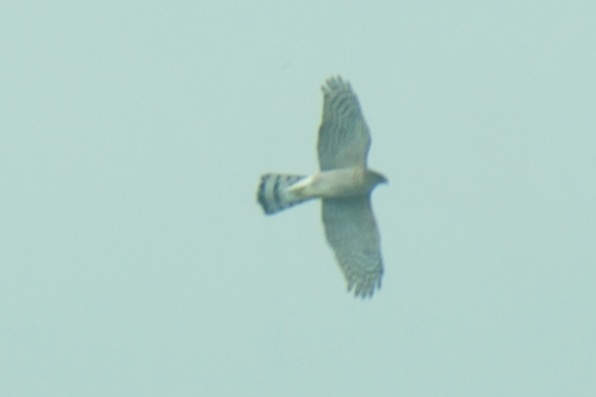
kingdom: Animalia
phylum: Chordata
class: Aves
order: Accipitriformes
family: Accipitridae
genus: Accipiter
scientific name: Accipiter cooperii
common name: Cooper's hawk
